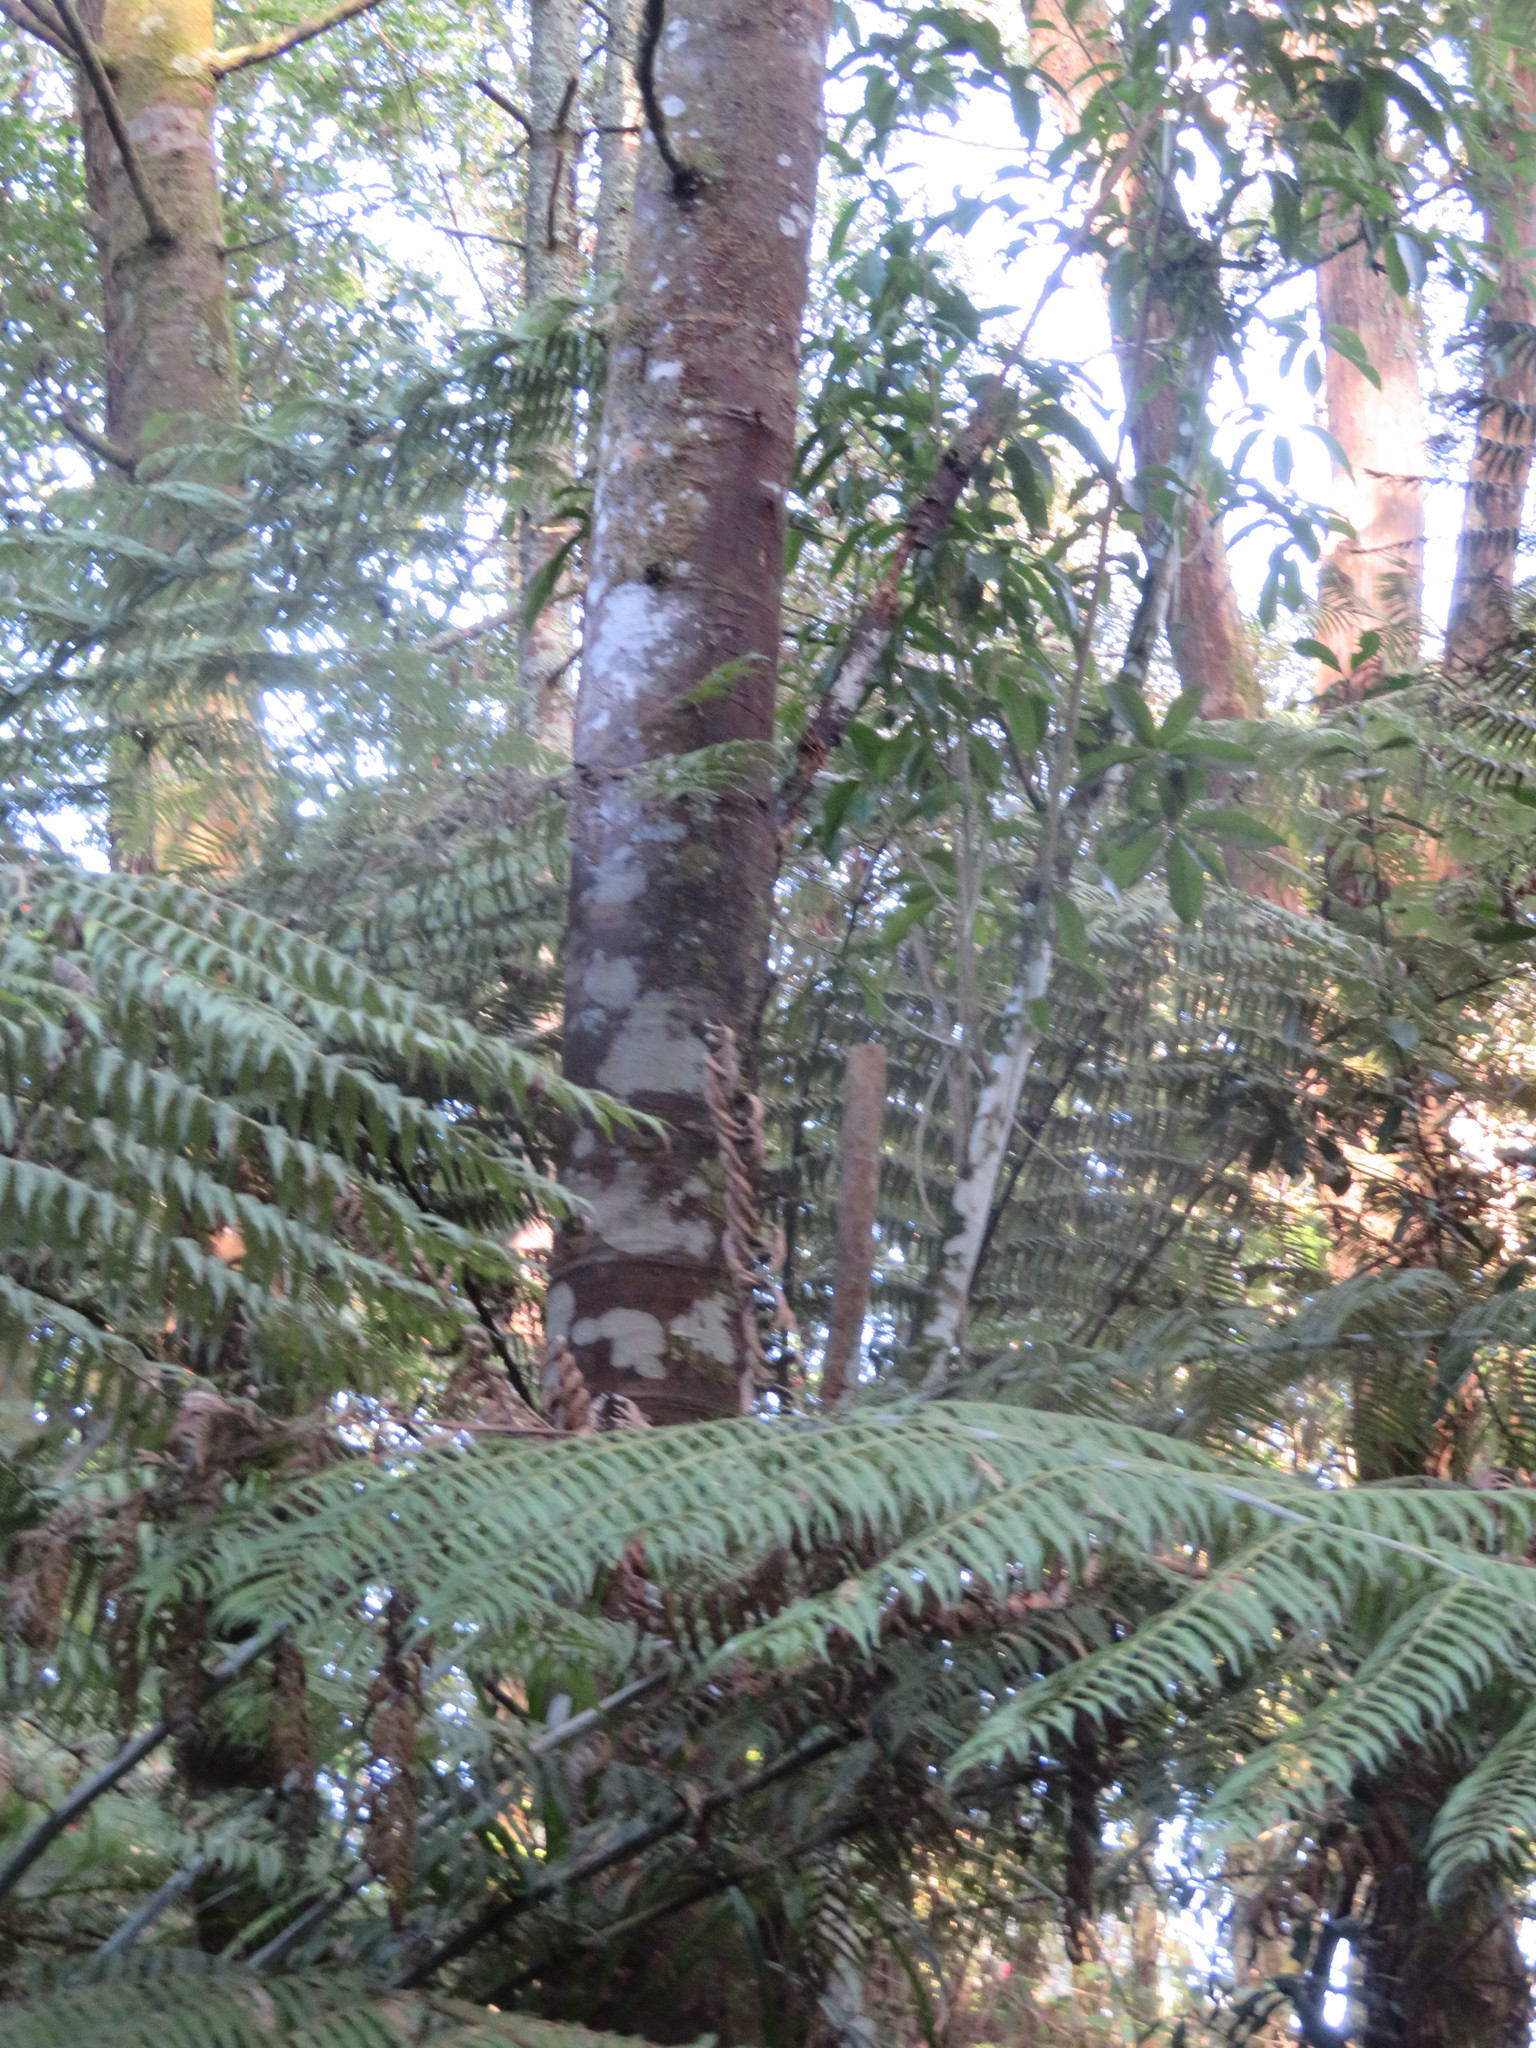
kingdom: Plantae
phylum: Tracheophyta
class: Pinopsida
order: Pinales
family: Phyllocladaceae
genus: Phyllocladus
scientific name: Phyllocladus trichomanoides
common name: Celery pine
